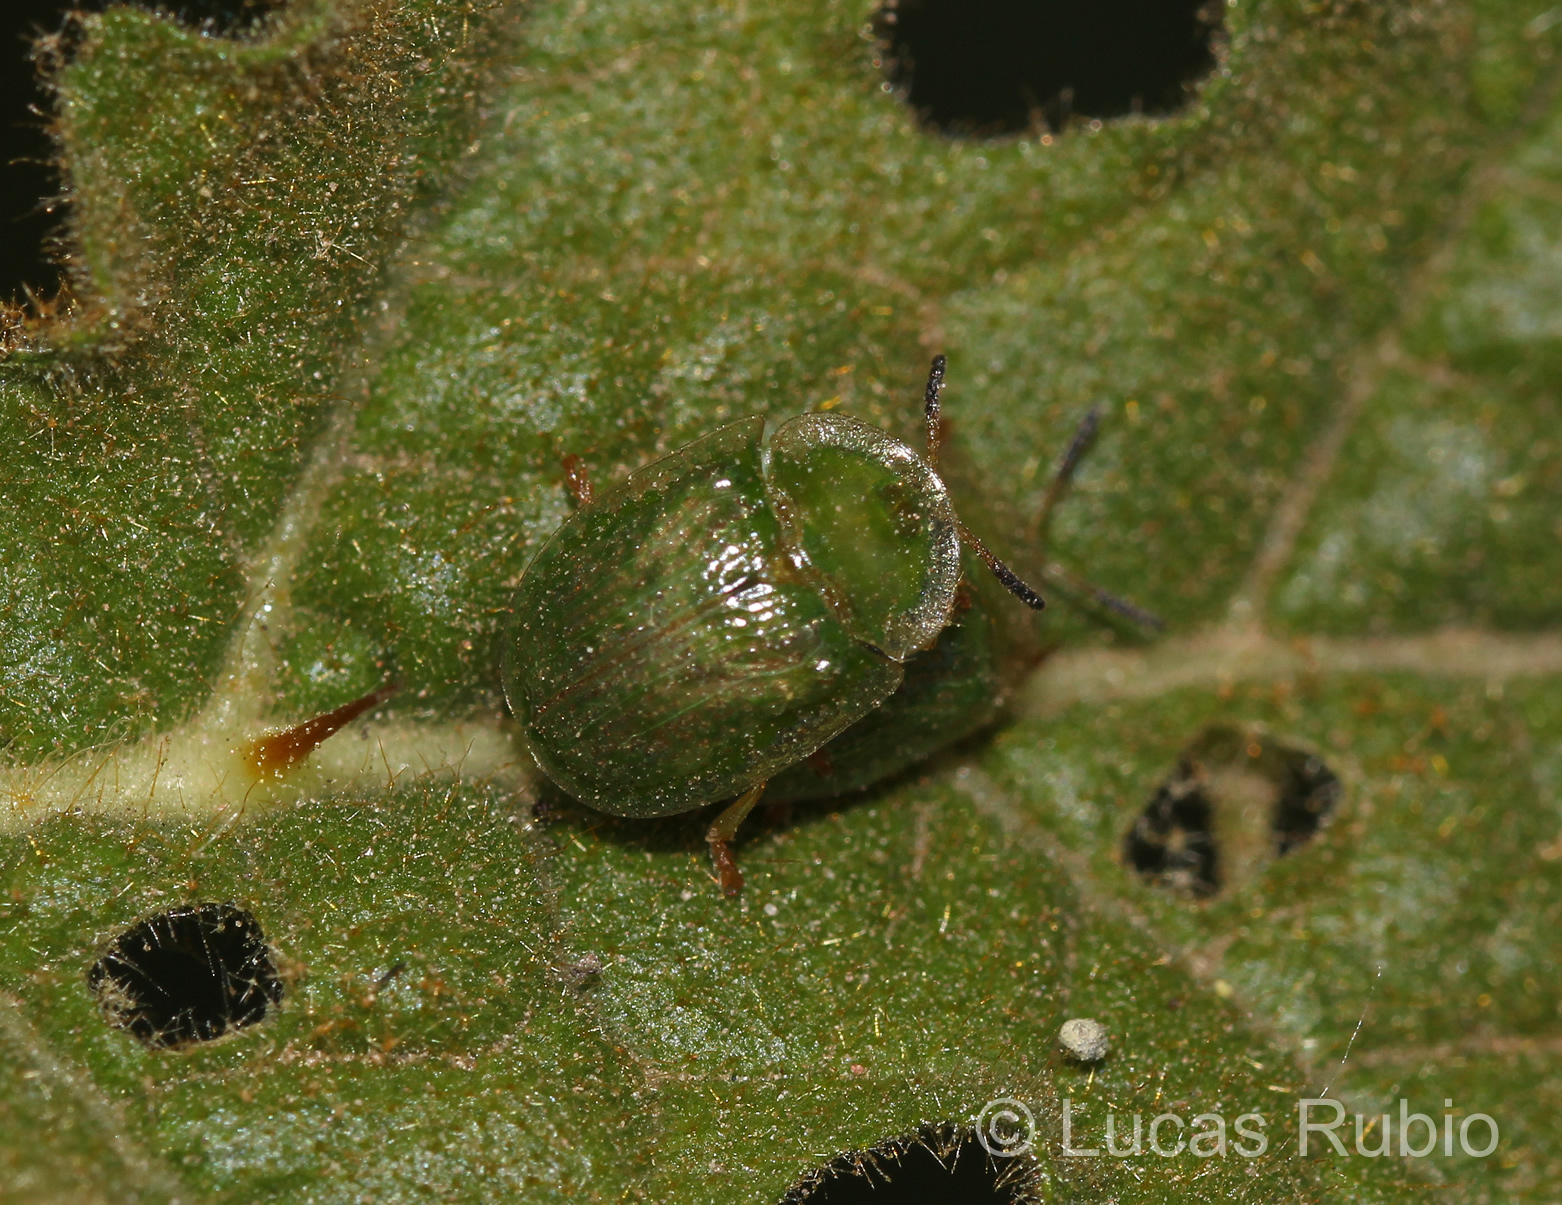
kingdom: Animalia
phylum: Arthropoda
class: Insecta
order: Coleoptera
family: Chrysomelidae
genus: Gratiana
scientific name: Gratiana spadicea
